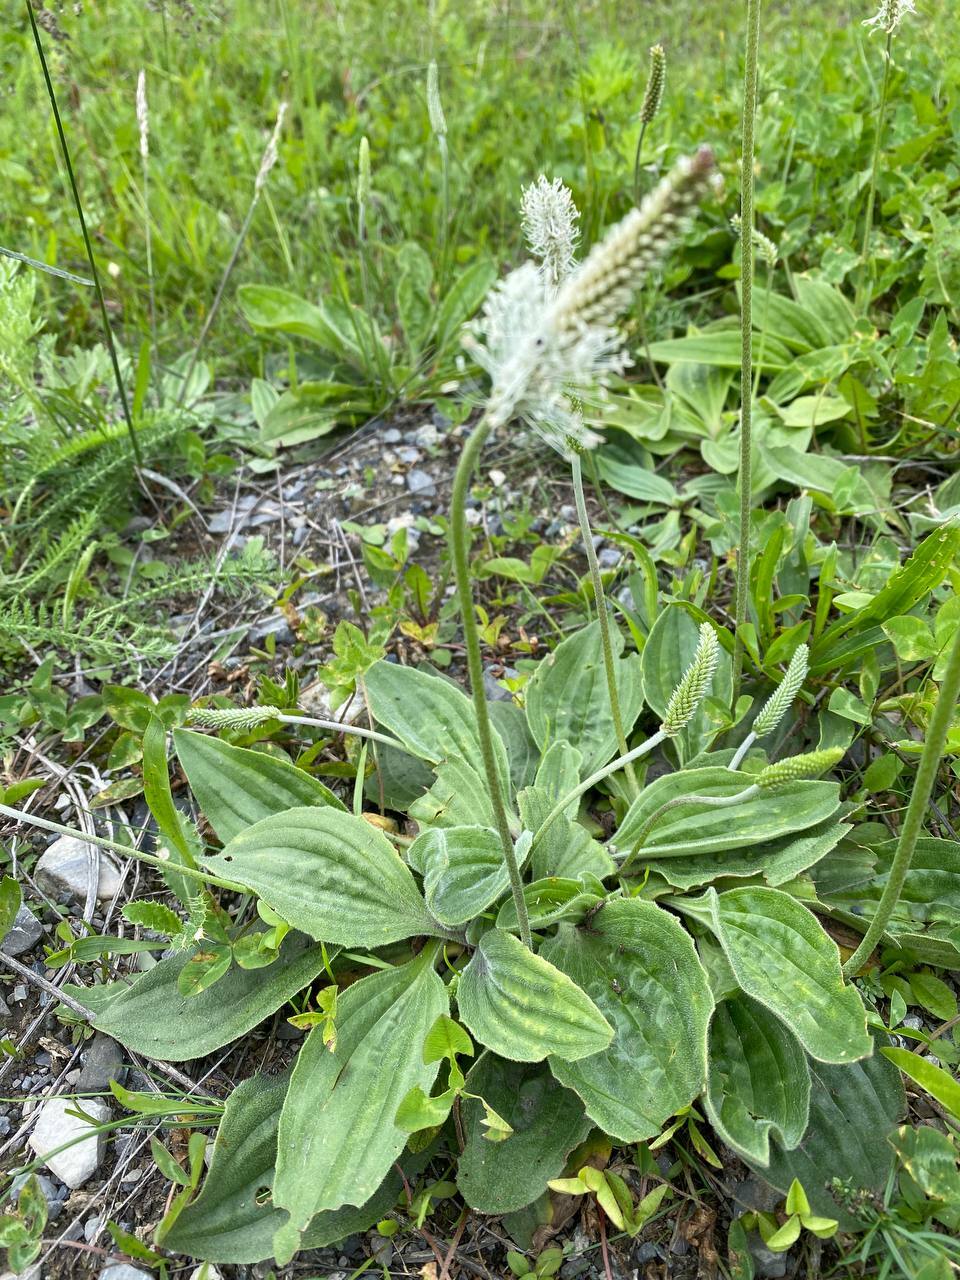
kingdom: Plantae
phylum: Tracheophyta
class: Magnoliopsida
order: Lamiales
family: Plantaginaceae
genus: Plantago
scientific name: Plantago media
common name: Hoary plantain
